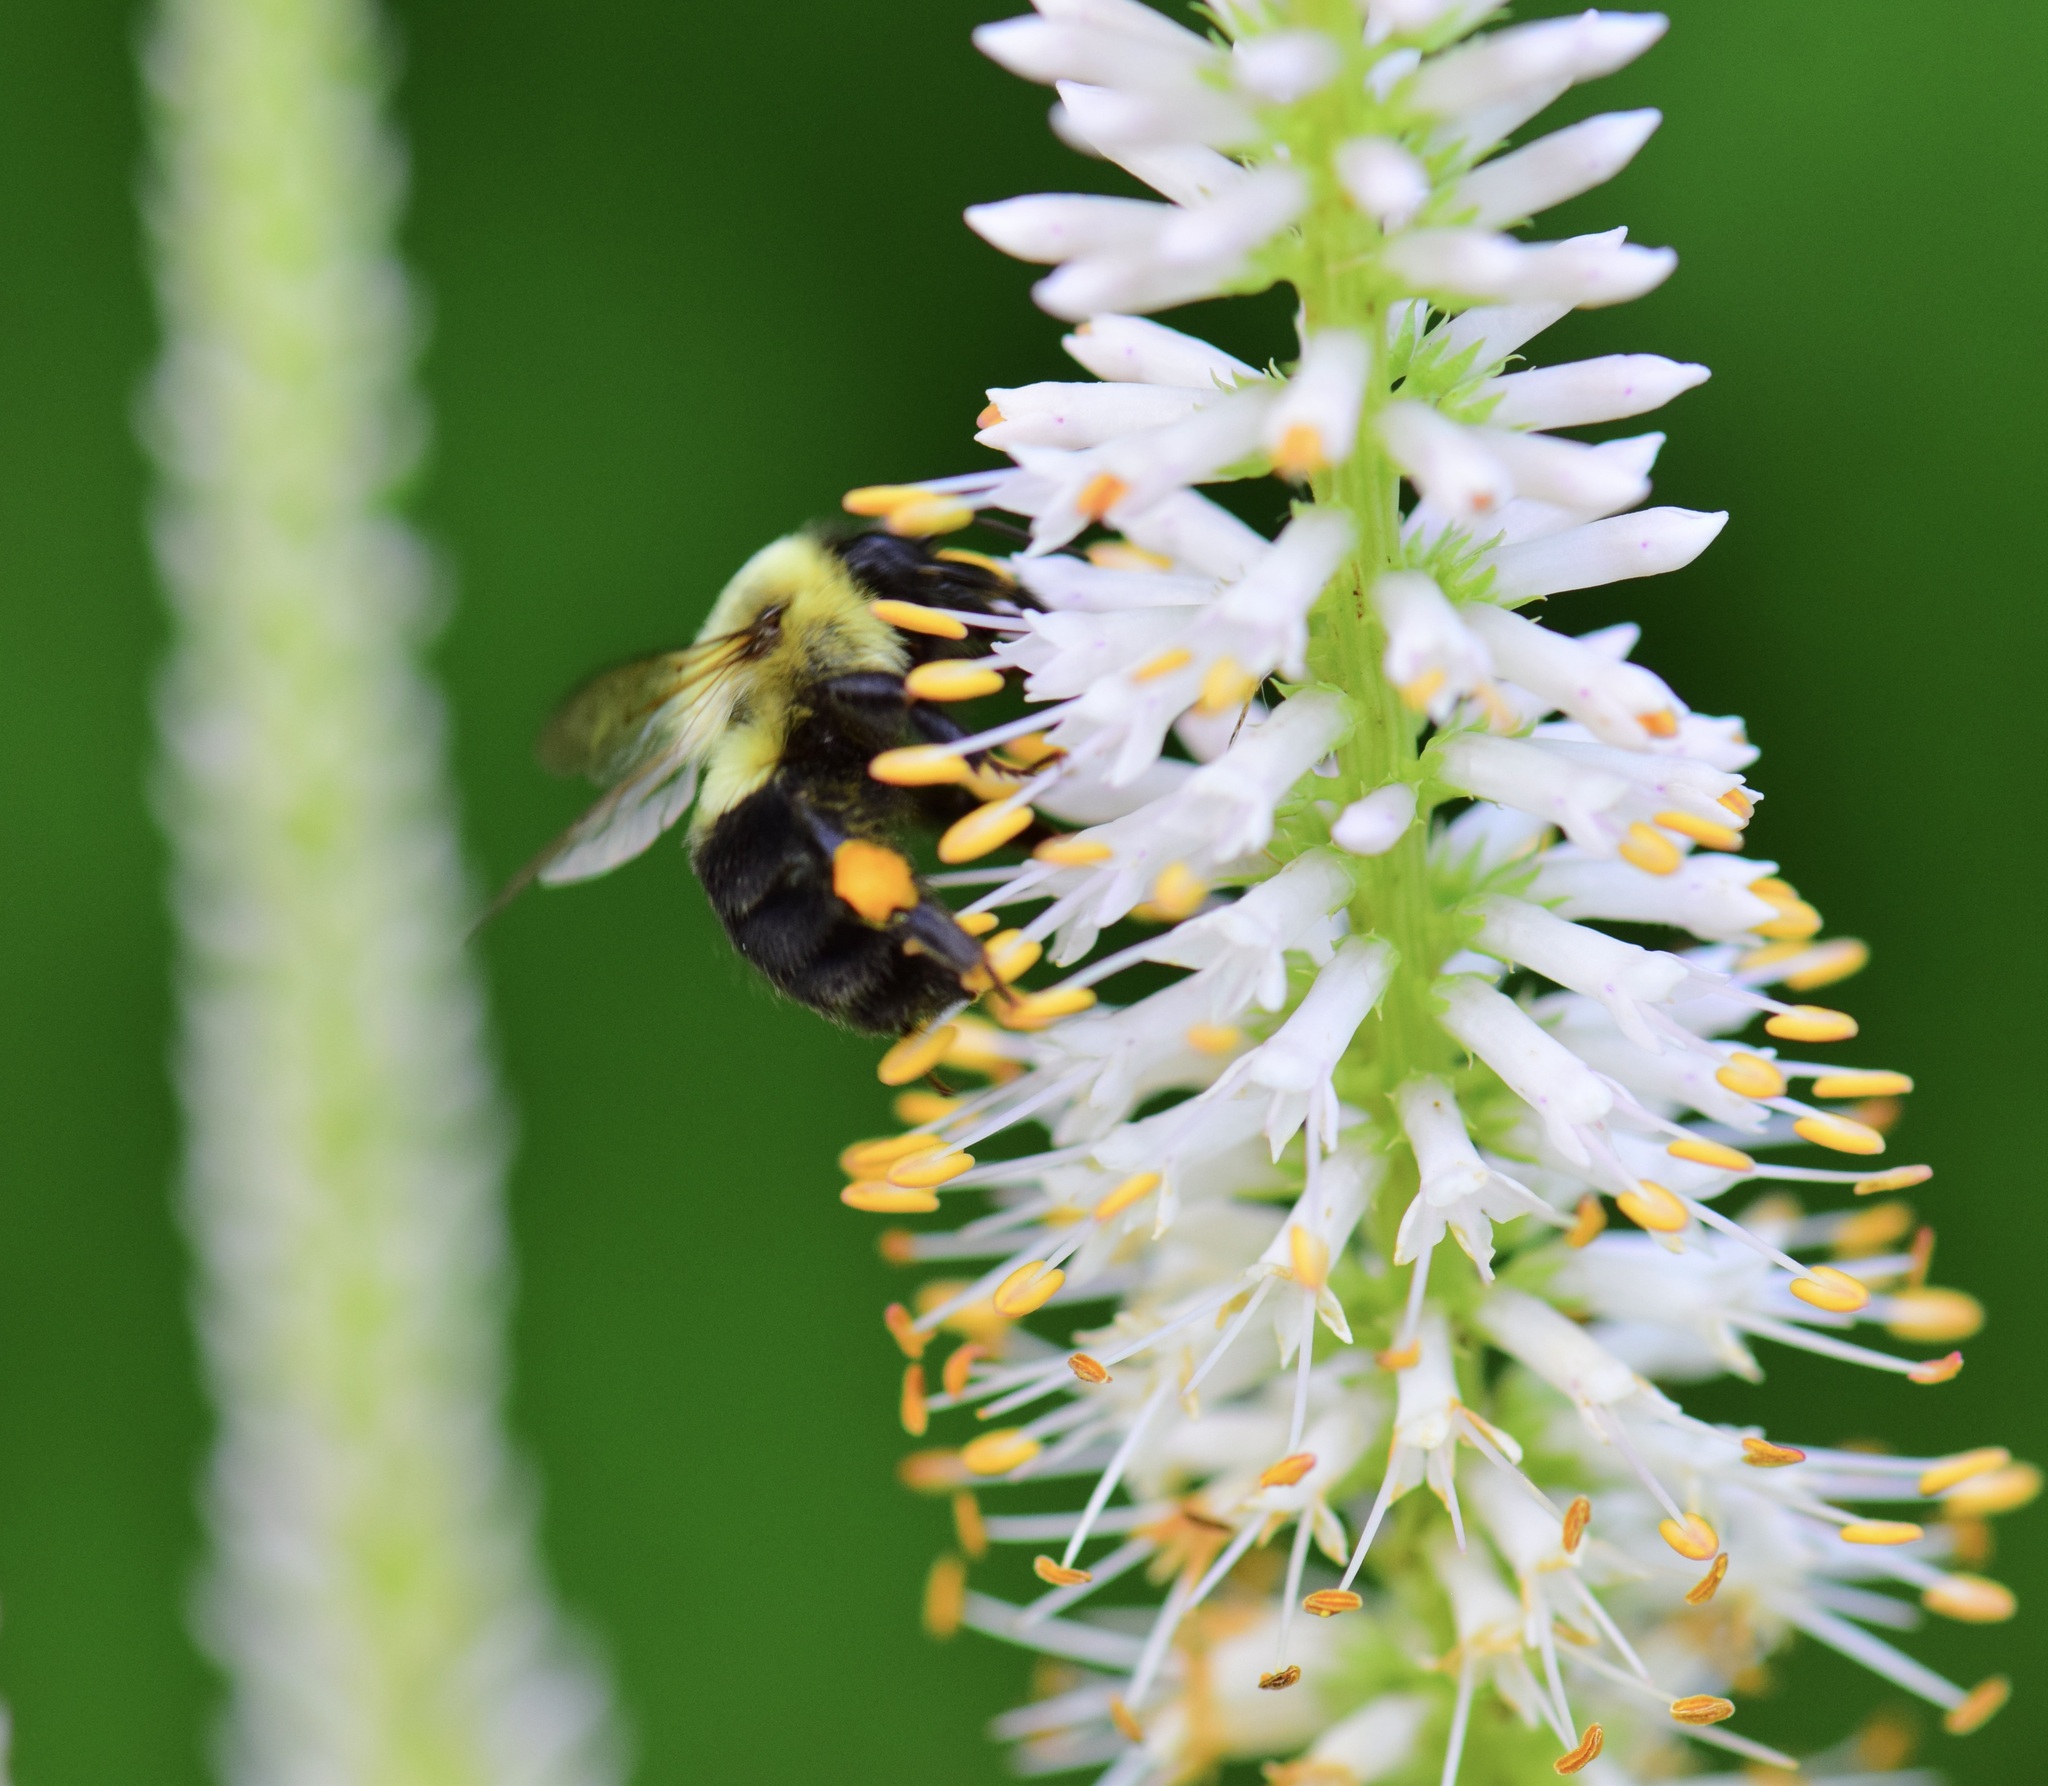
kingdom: Animalia
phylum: Arthropoda
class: Insecta
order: Hymenoptera
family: Apidae
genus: Bombus
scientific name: Bombus impatiens
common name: Common eastern bumble bee
